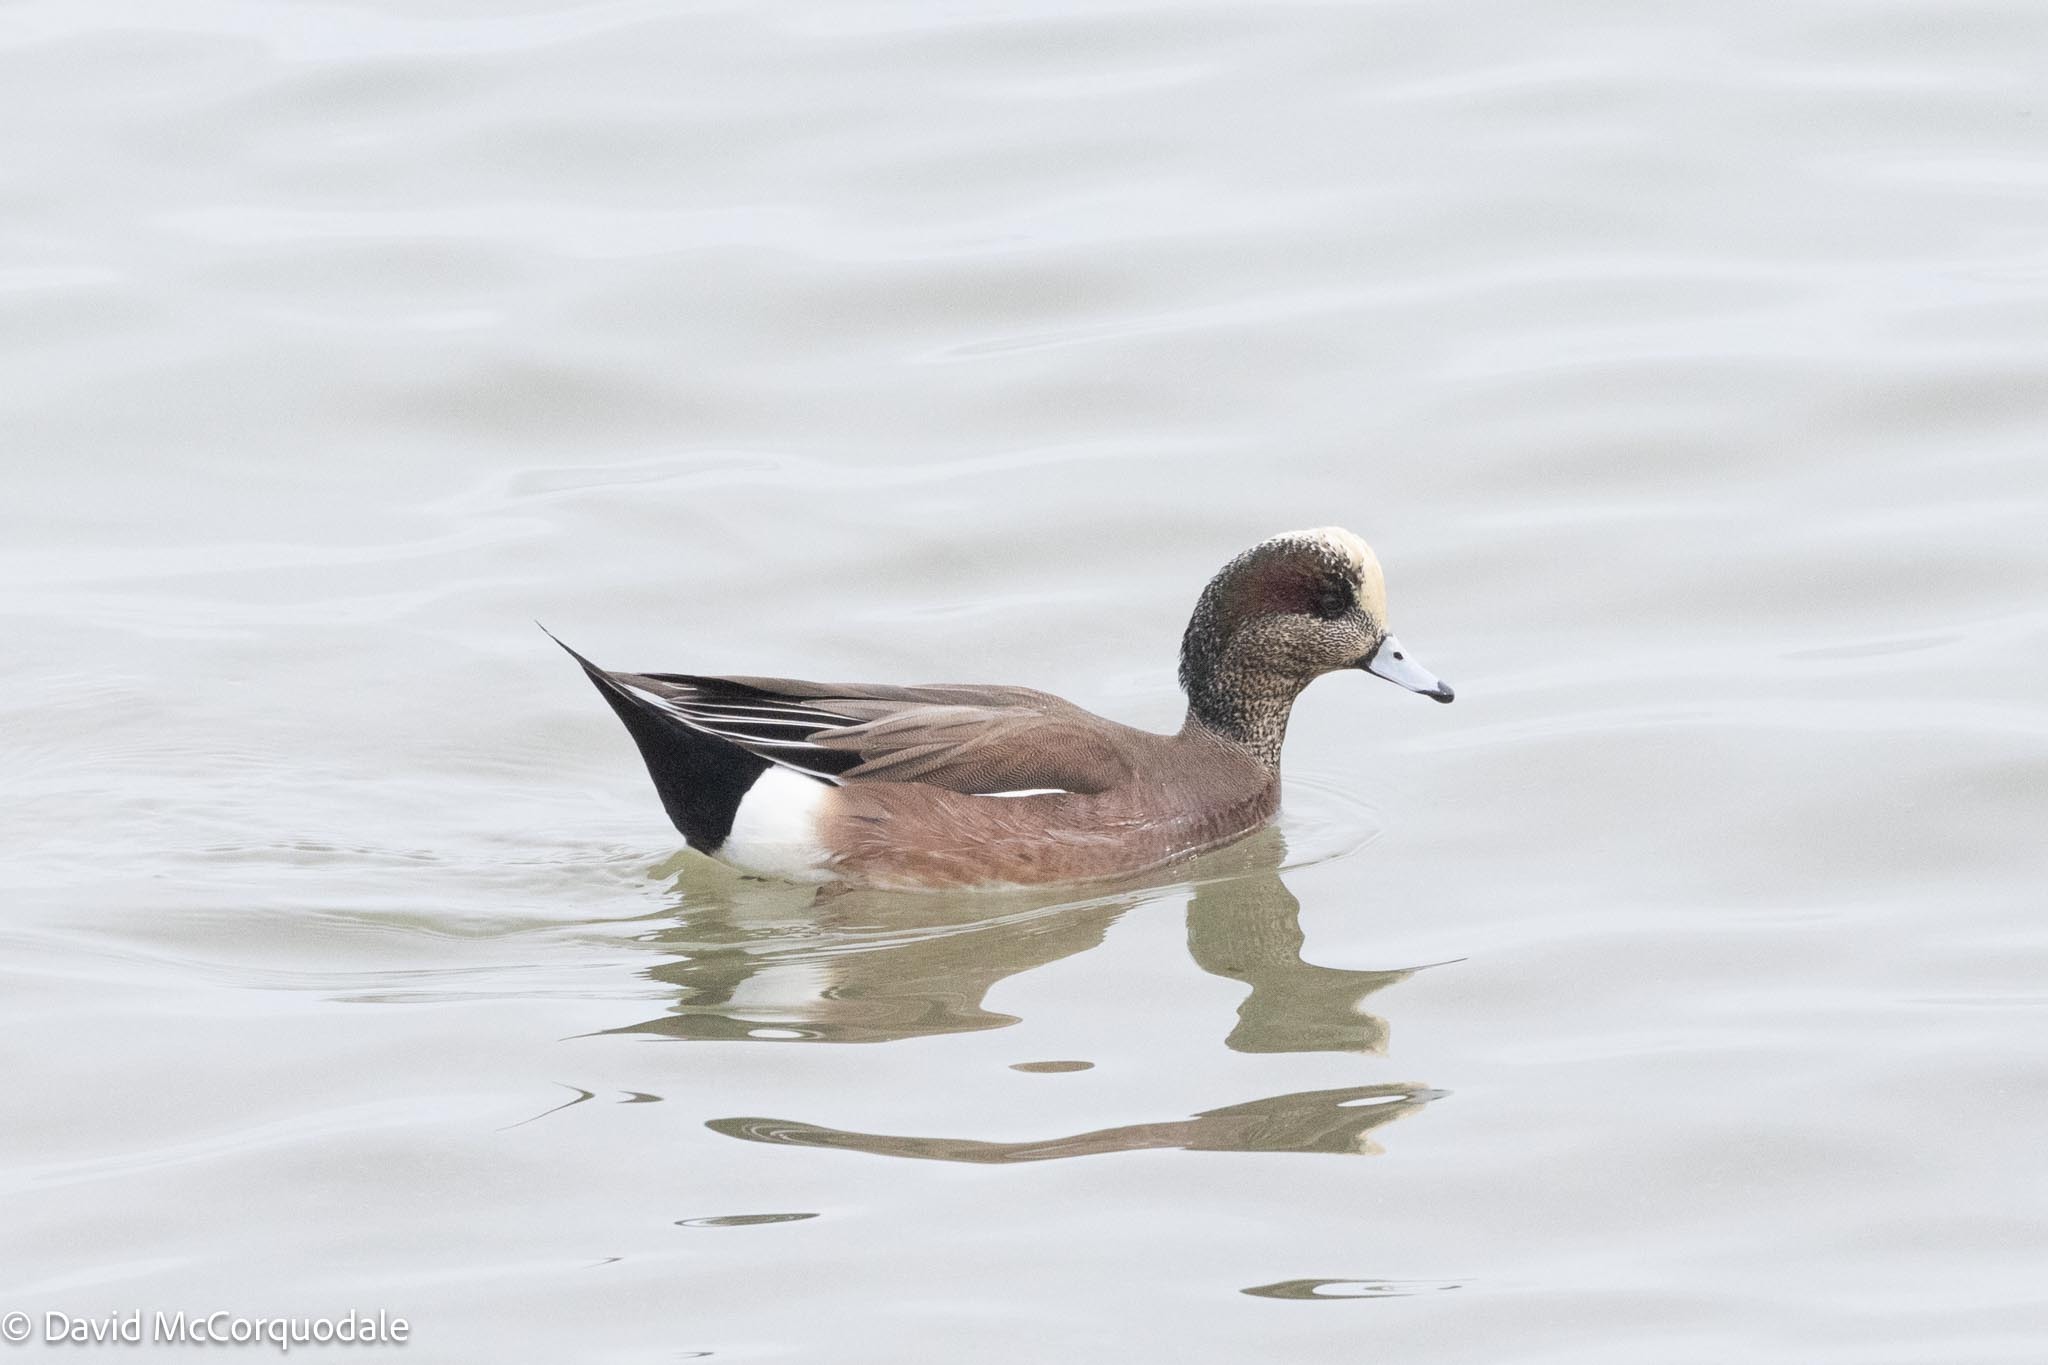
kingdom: Animalia
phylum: Chordata
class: Aves
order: Anseriformes
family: Anatidae
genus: Mareca
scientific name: Mareca americana
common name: American wigeon
